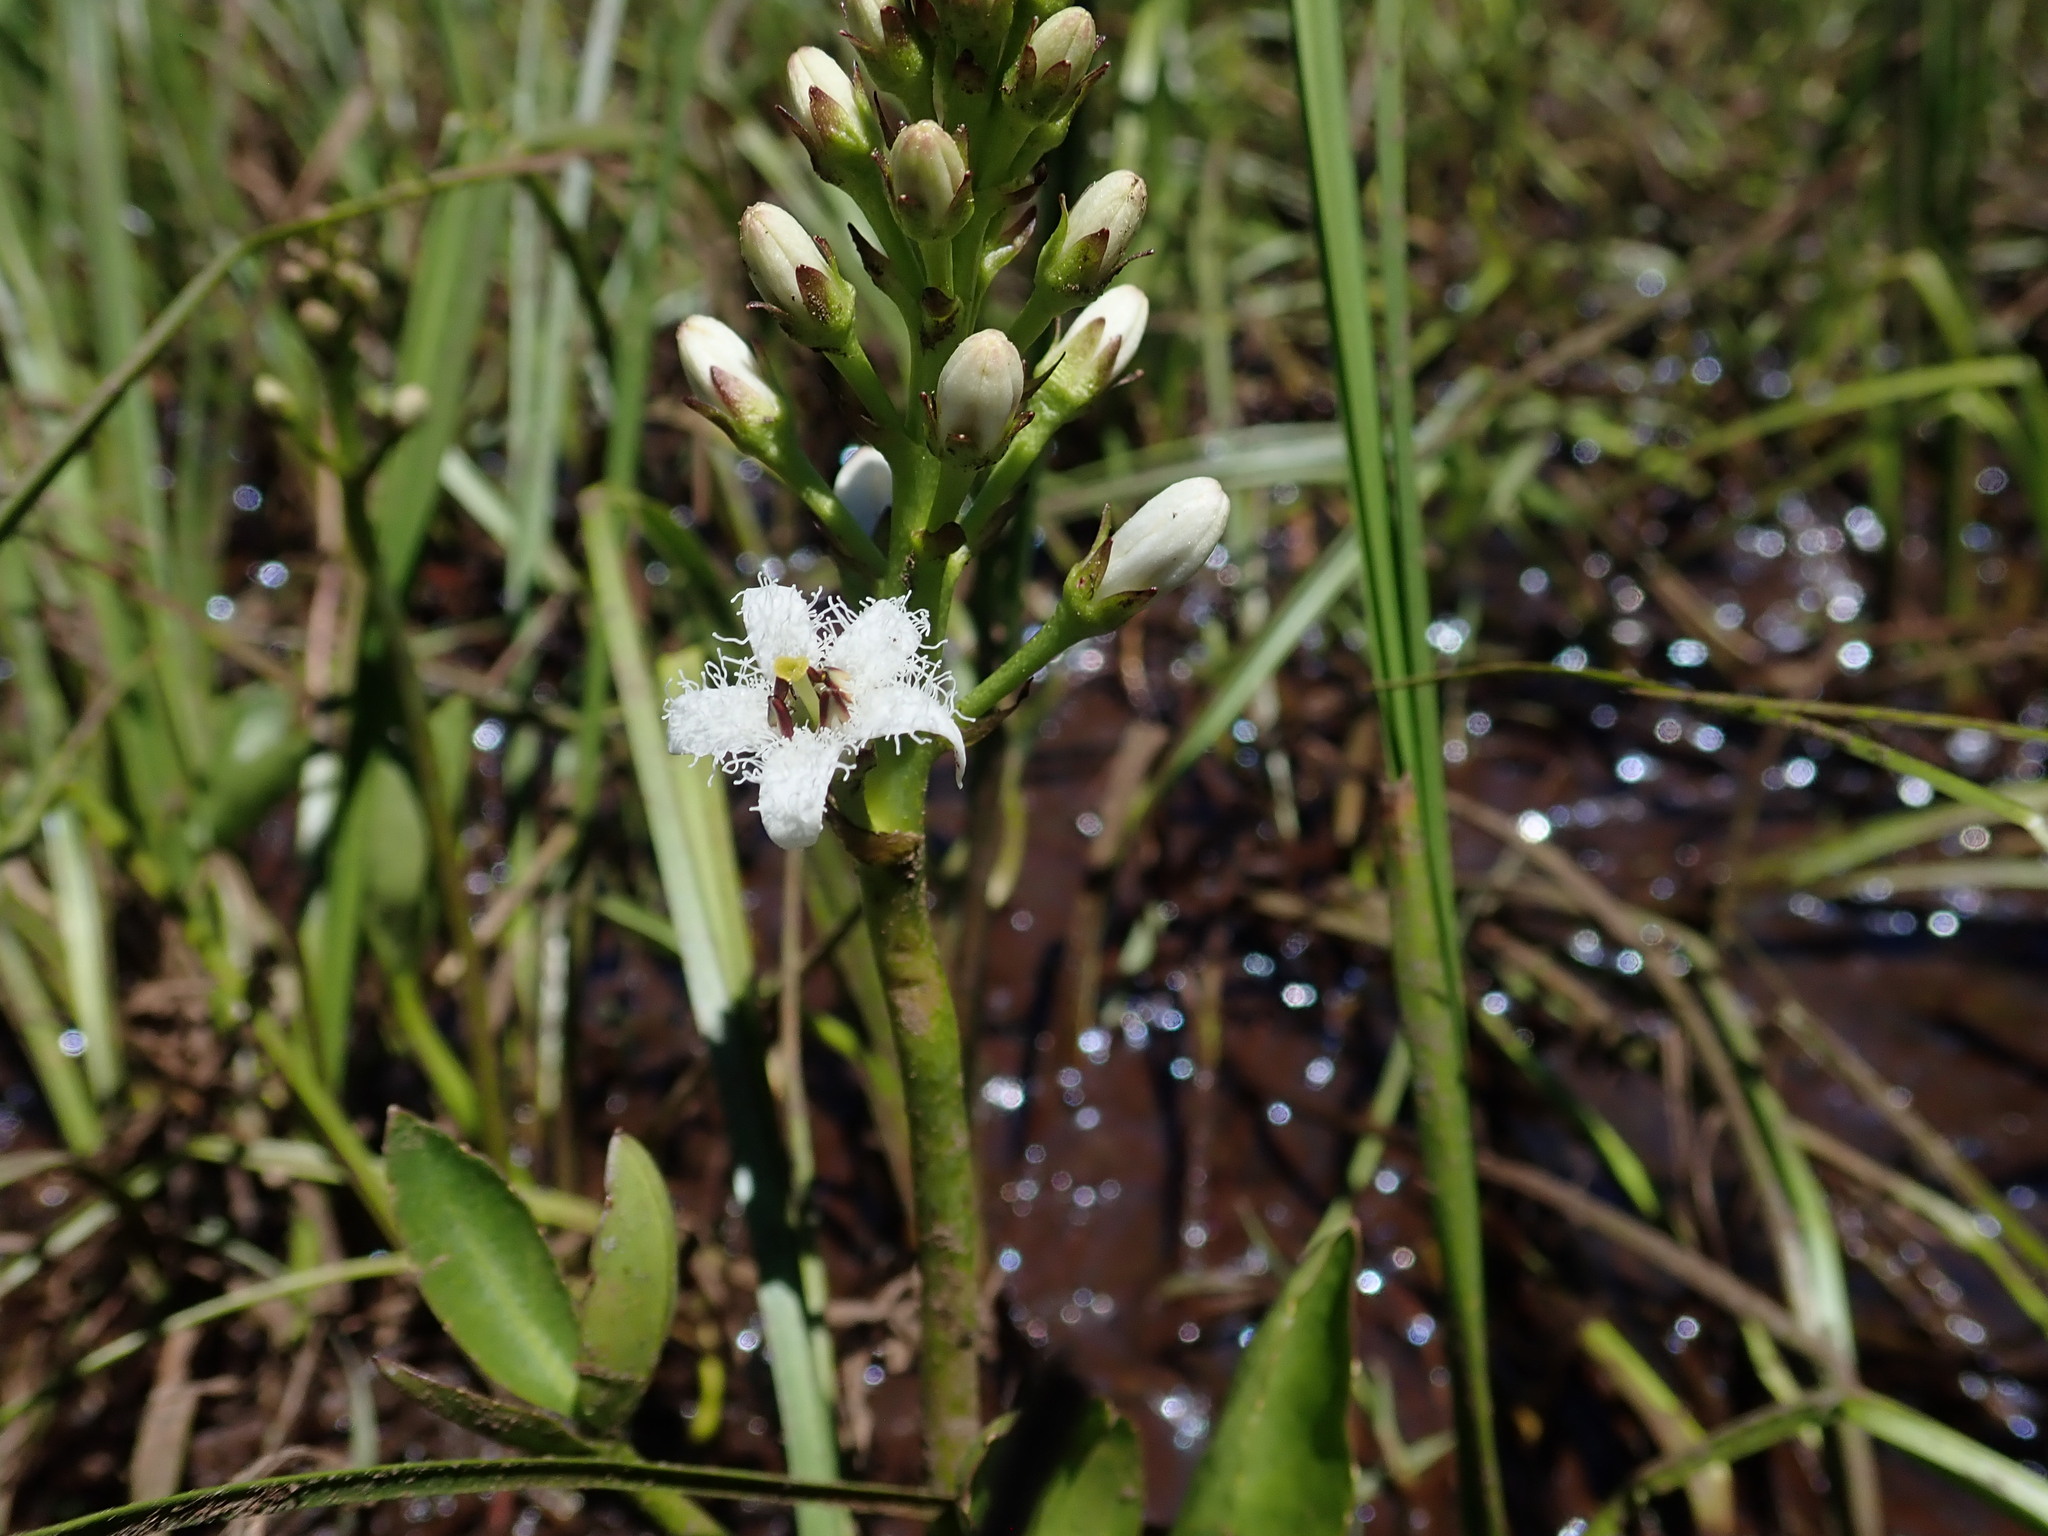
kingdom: Plantae
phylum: Tracheophyta
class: Magnoliopsida
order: Asterales
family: Menyanthaceae
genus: Menyanthes
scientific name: Menyanthes trifoliata
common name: Bogbean
